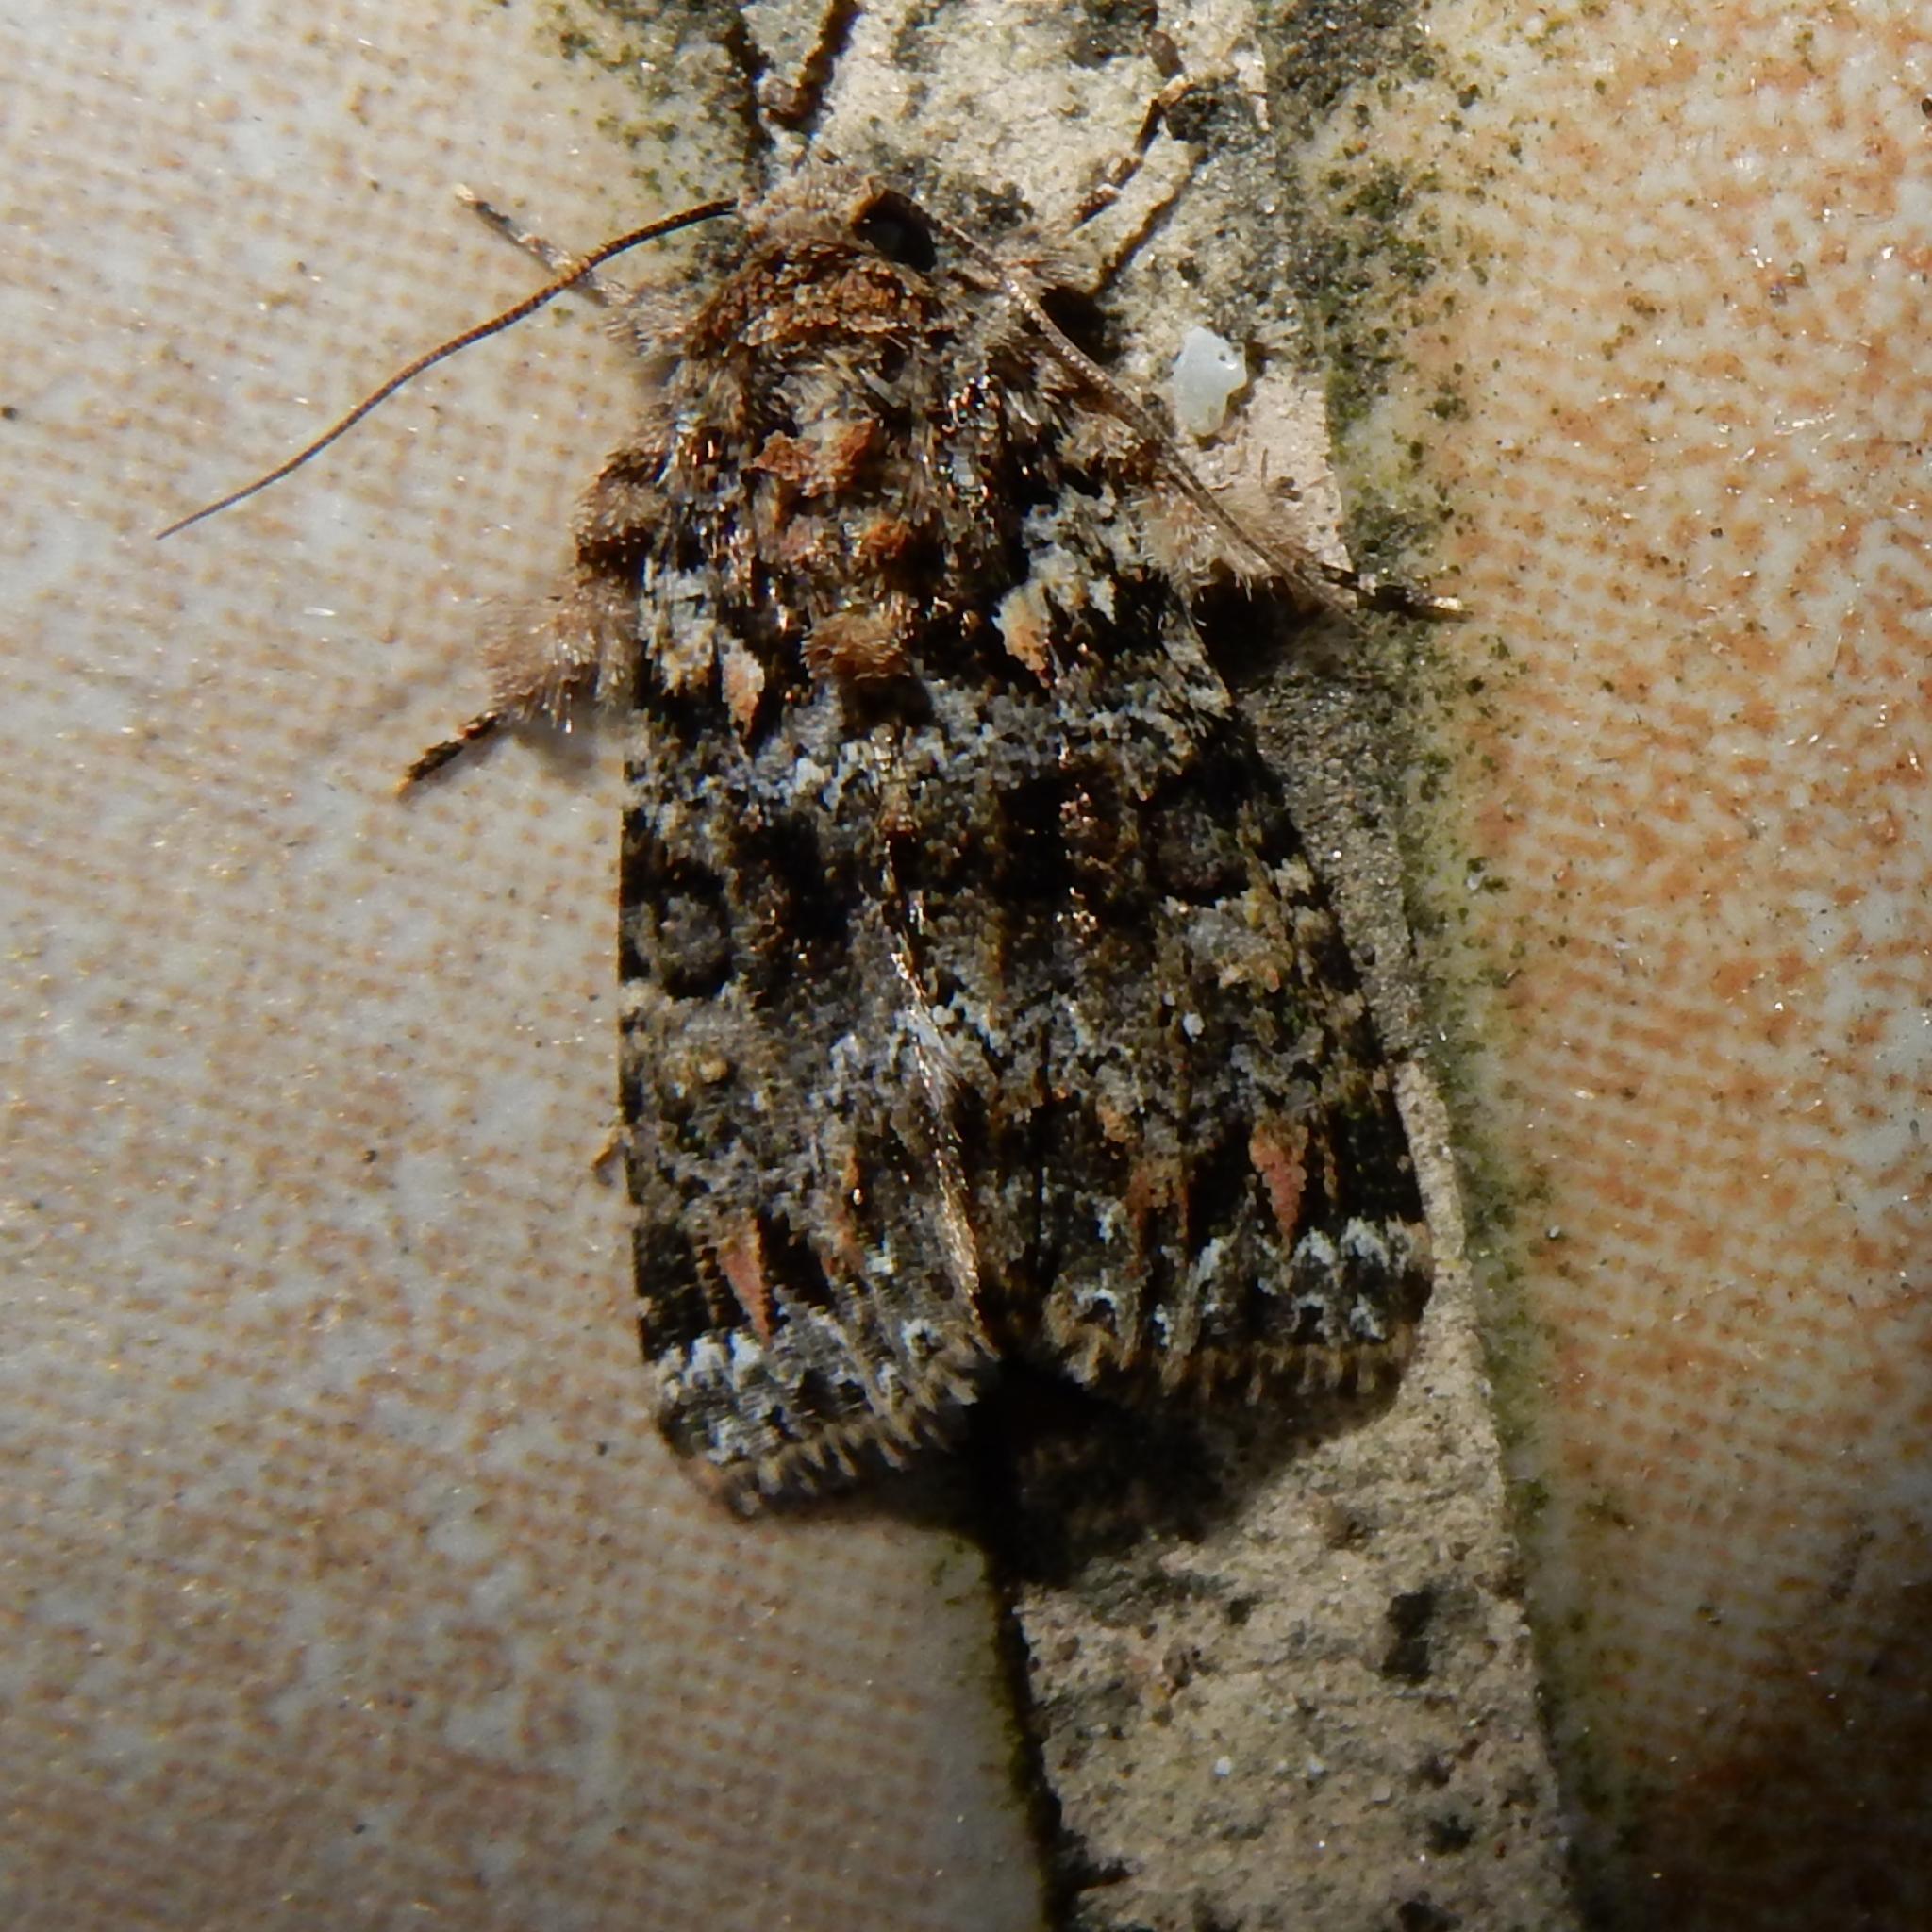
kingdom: Animalia
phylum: Arthropoda
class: Insecta
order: Lepidoptera
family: Noctuidae
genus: Callopistria
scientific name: Callopistria latreillei
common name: Latreille's latin
